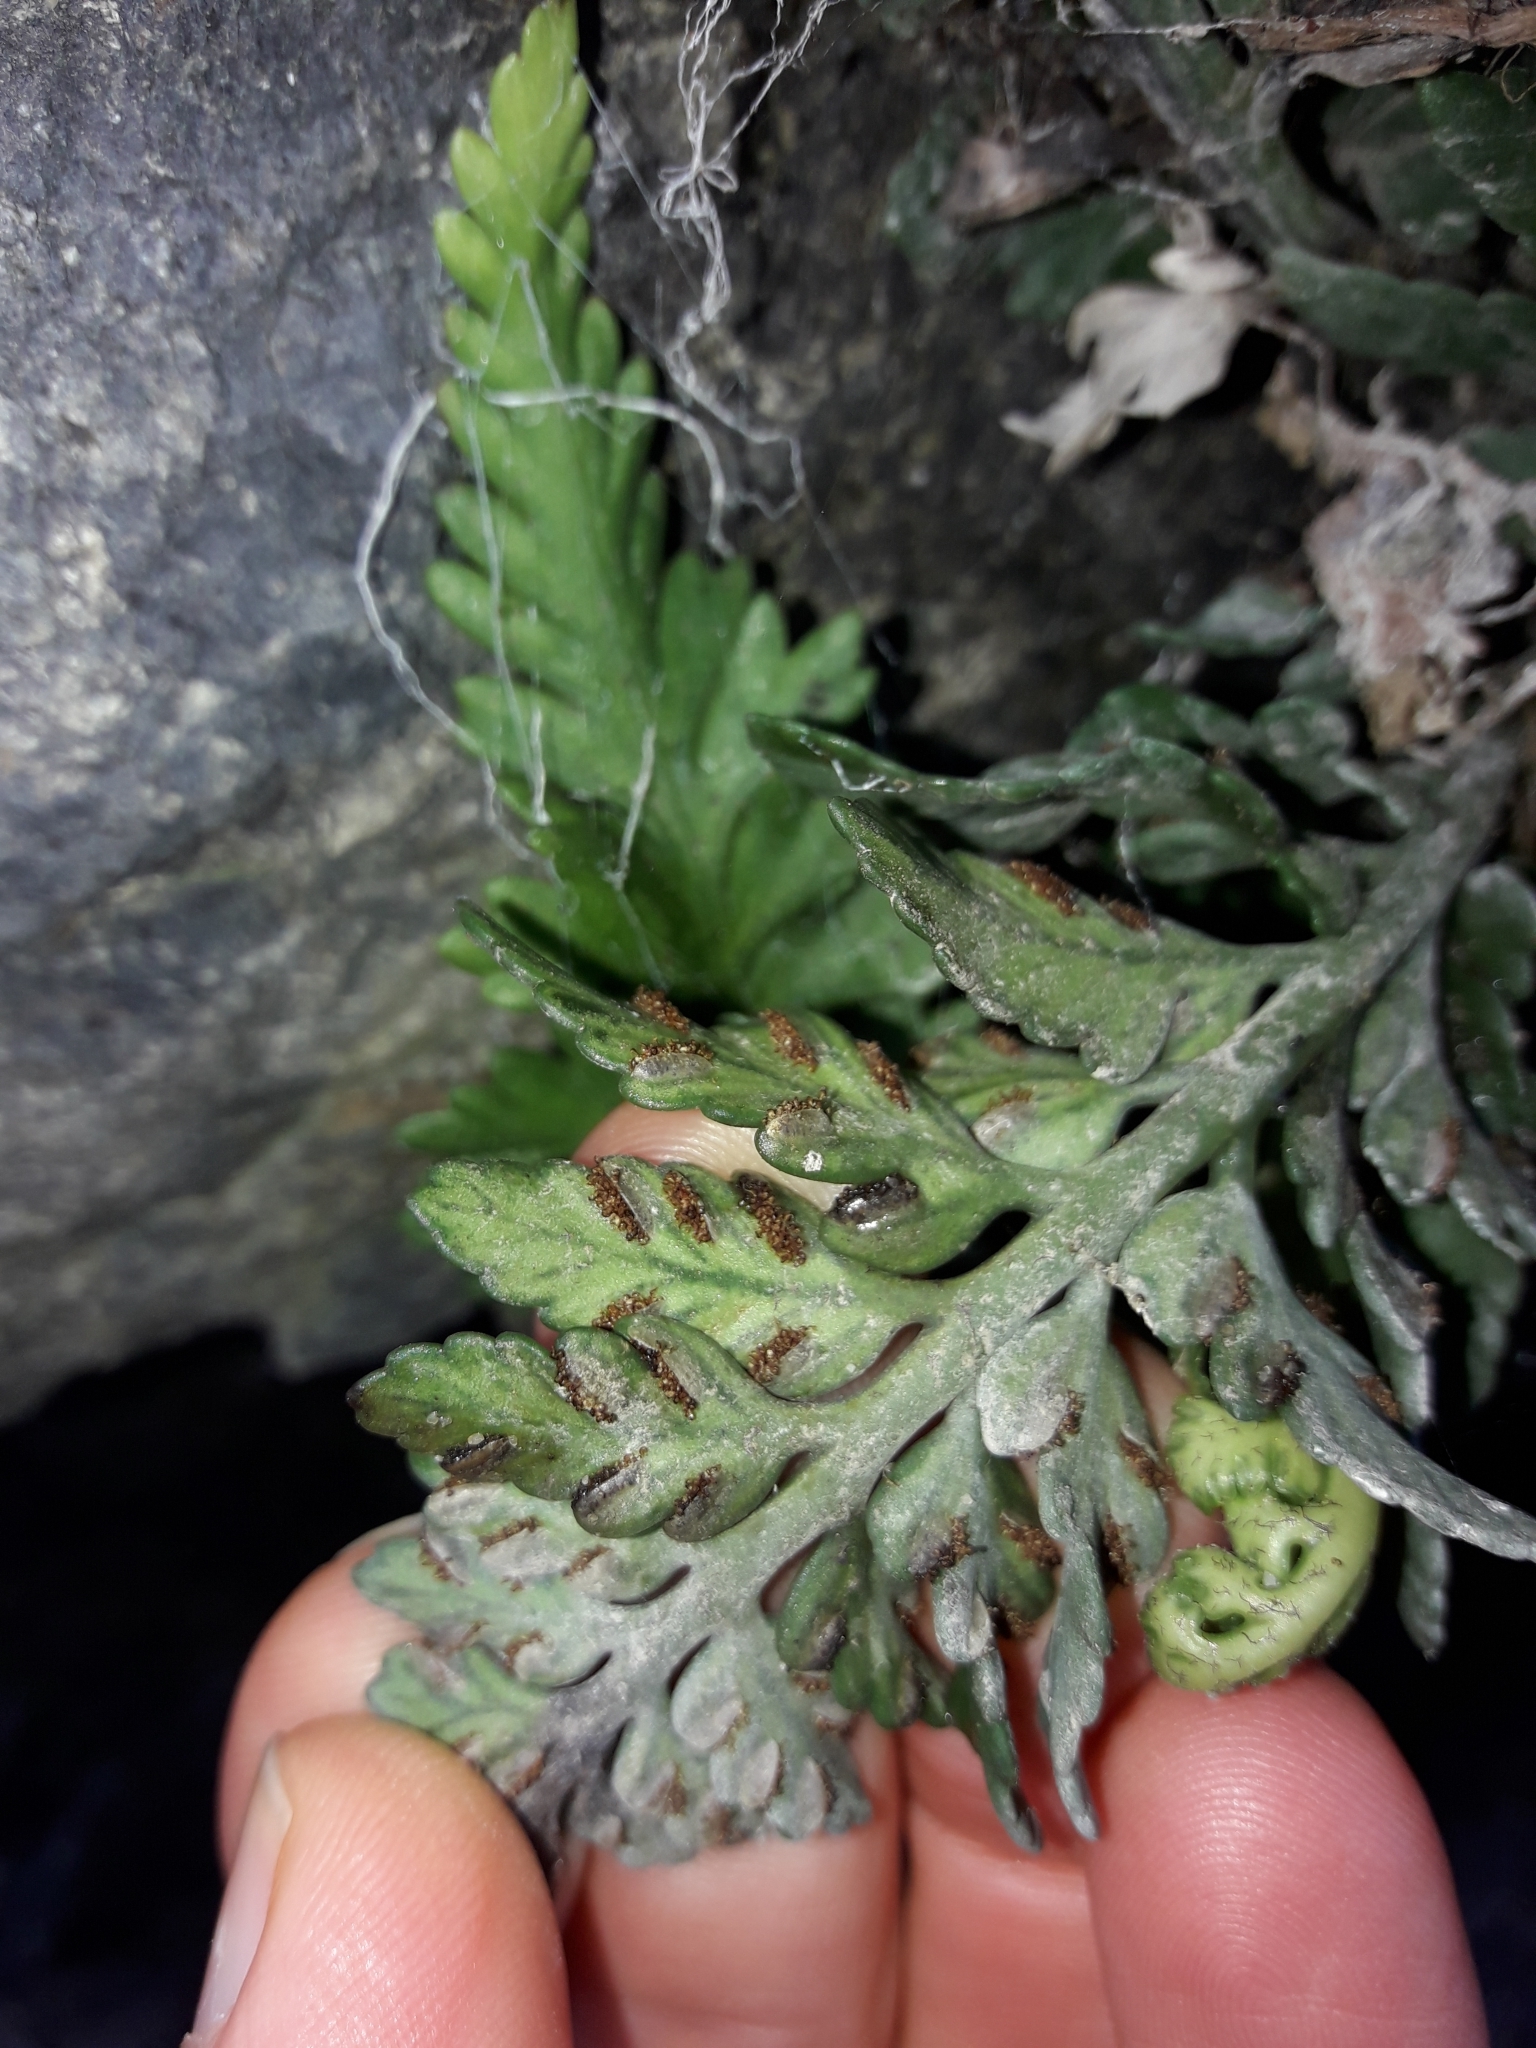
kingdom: Plantae
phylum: Tracheophyta
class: Polypodiopsida
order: Polypodiales
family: Aspleniaceae
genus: Asplenium
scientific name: Asplenium appendiculatum
